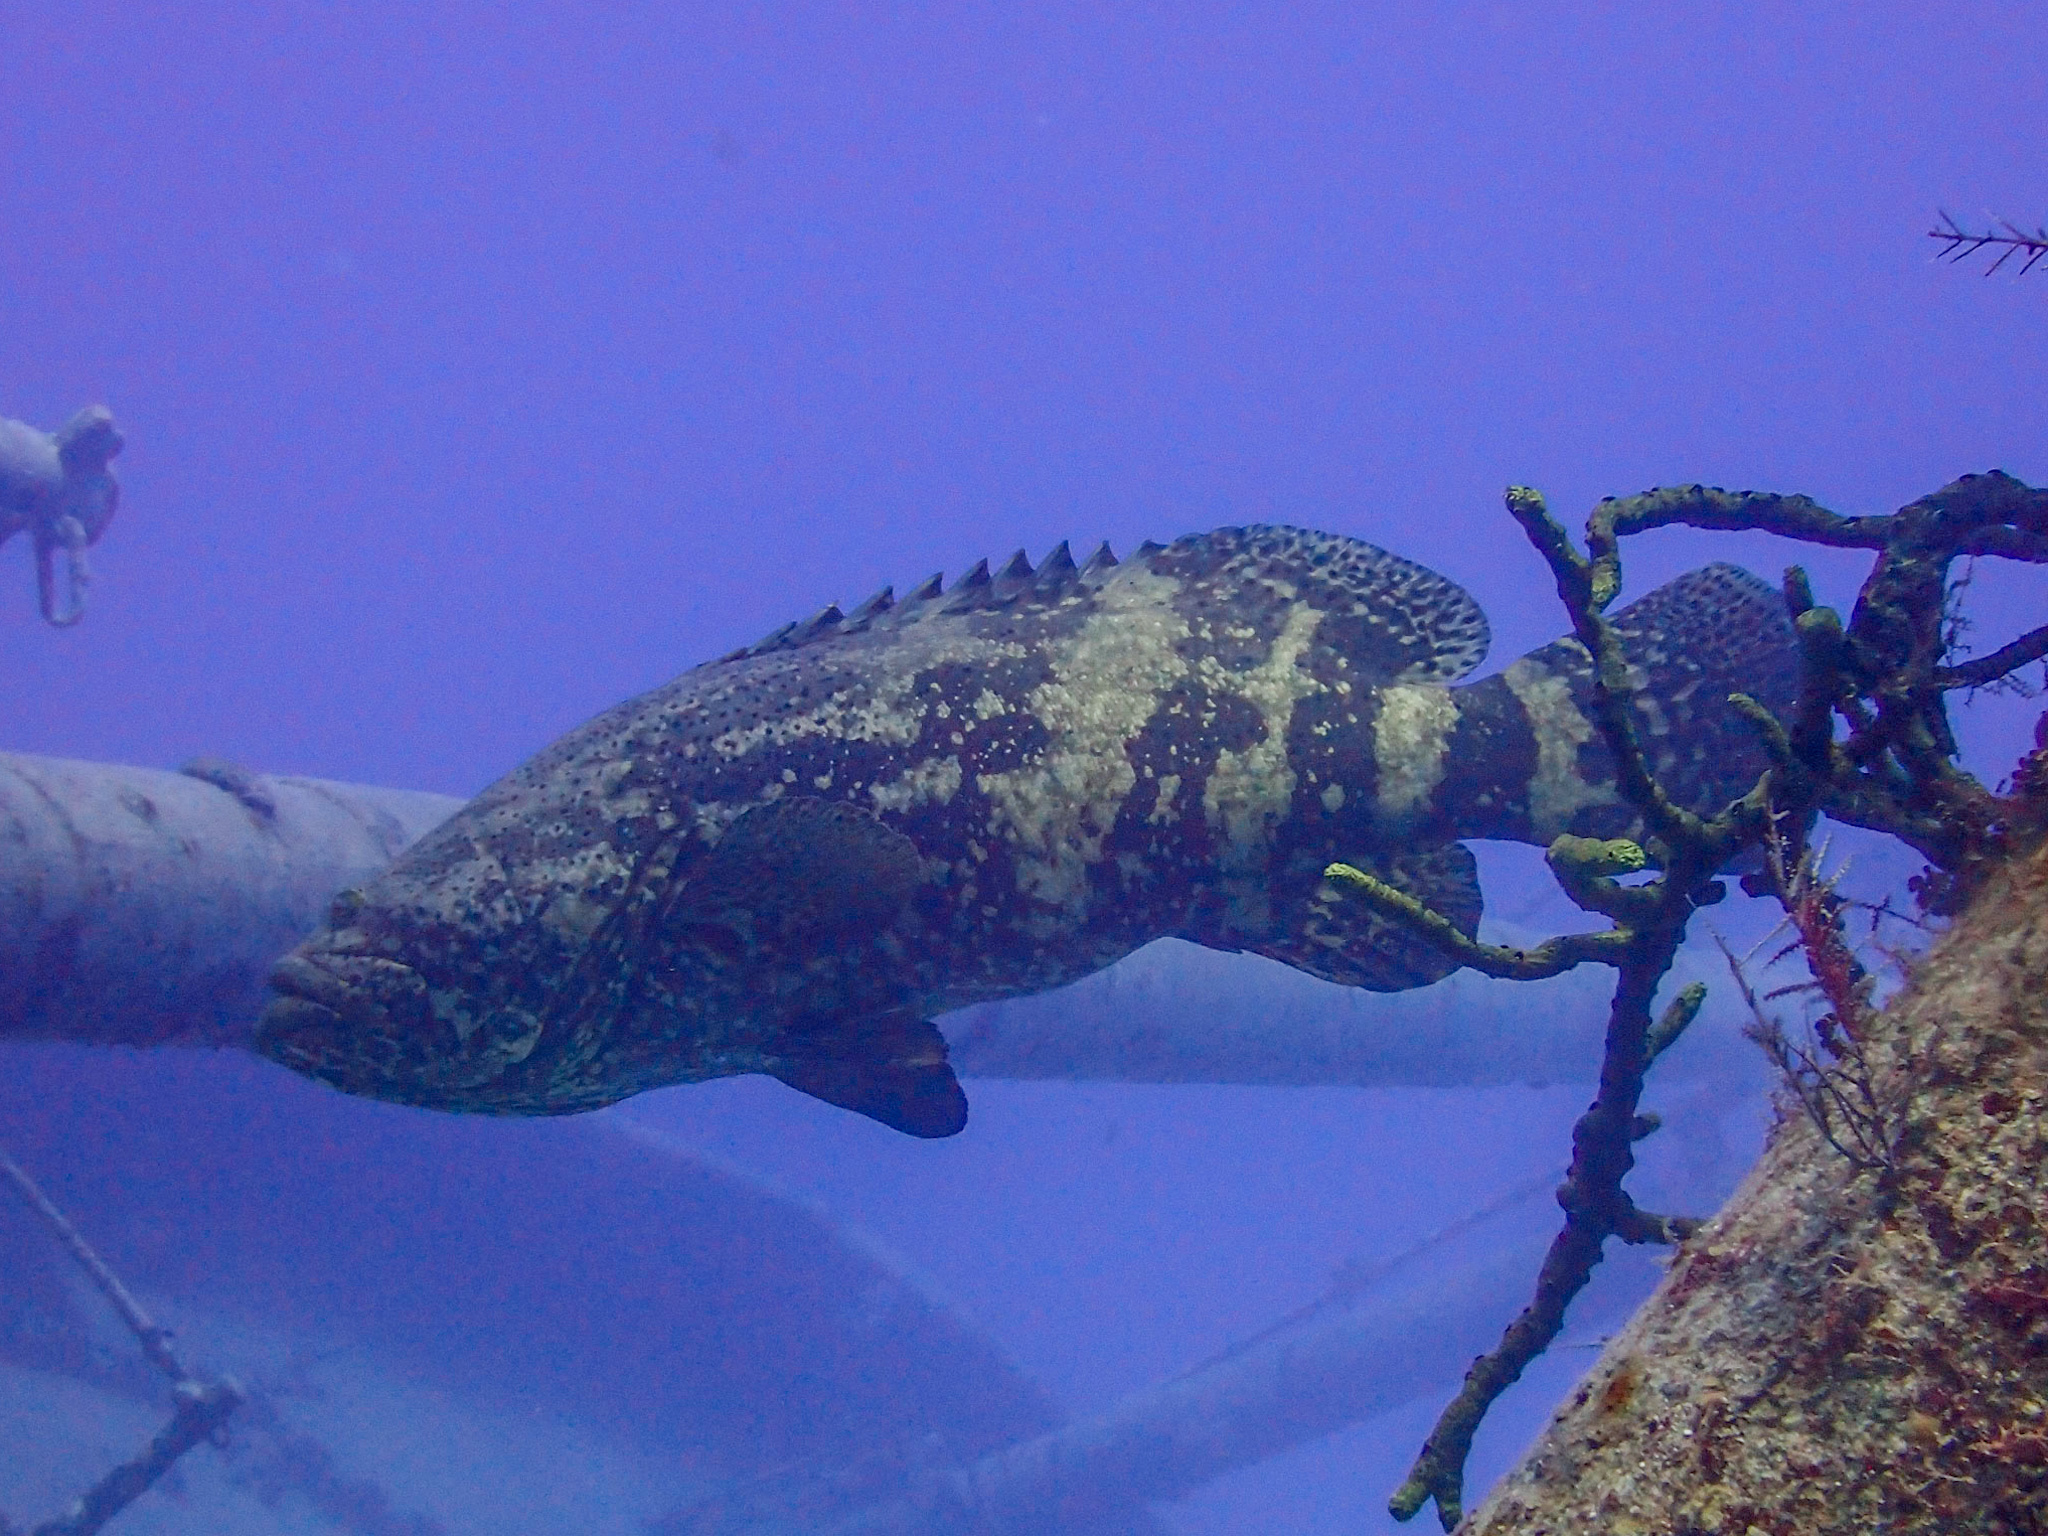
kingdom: Animalia
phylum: Chordata
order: Perciformes
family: Serranidae
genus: Epinephelus
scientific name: Epinephelus itajara
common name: Jewfish
